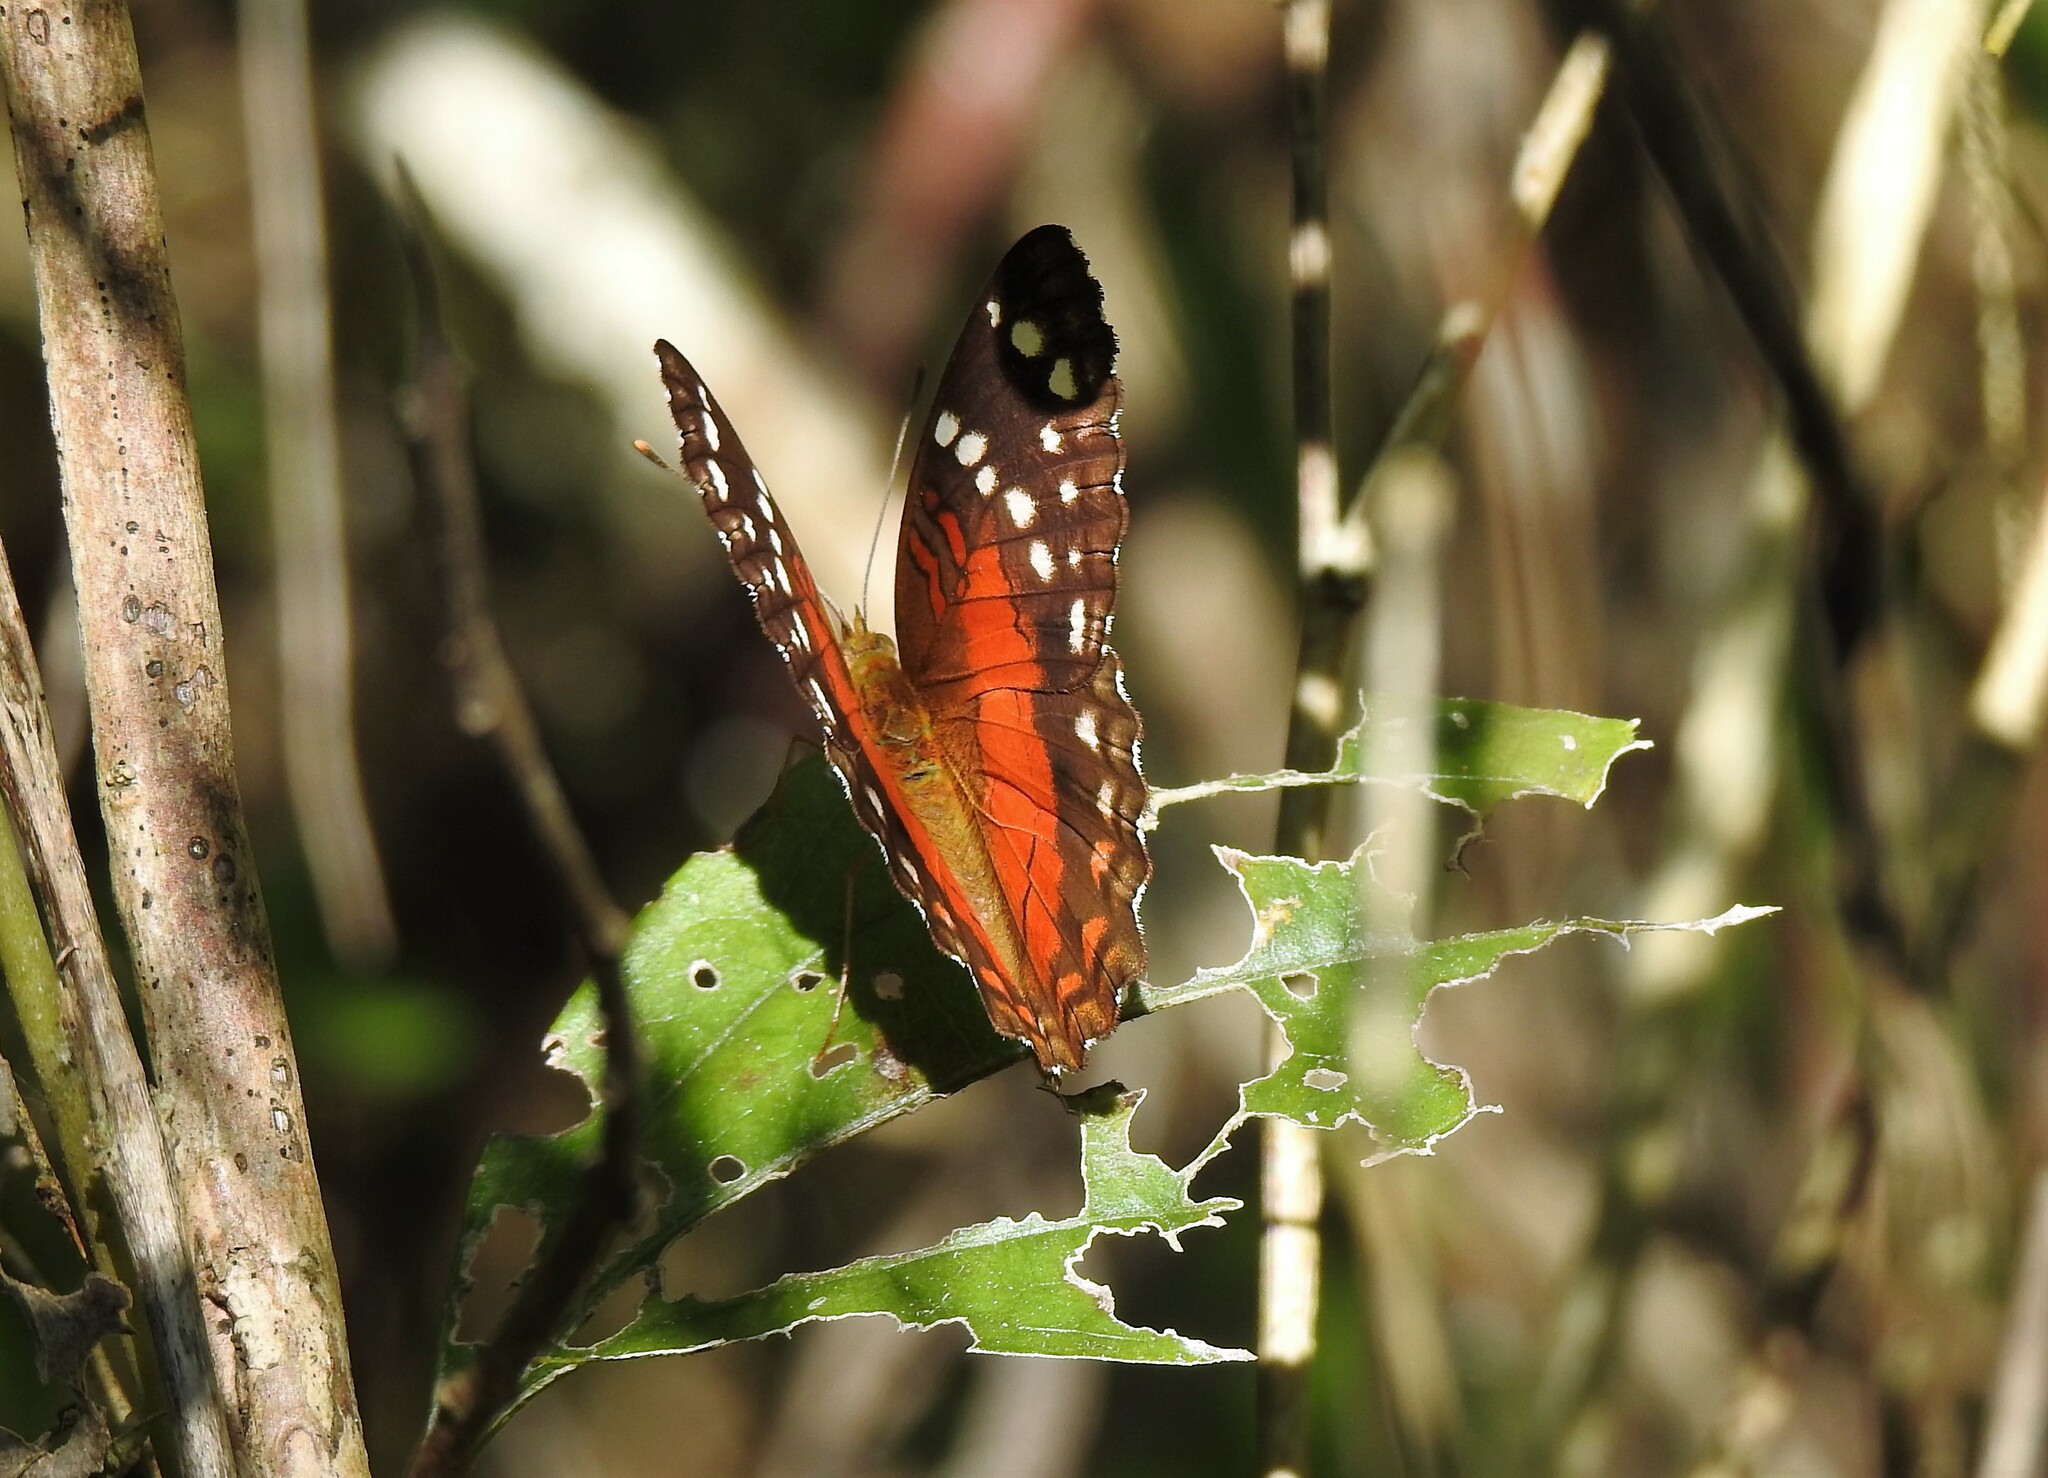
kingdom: Animalia
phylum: Arthropoda
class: Insecta
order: Lepidoptera
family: Nymphalidae
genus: Anartia
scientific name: Anartia amathea
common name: Red peacock
